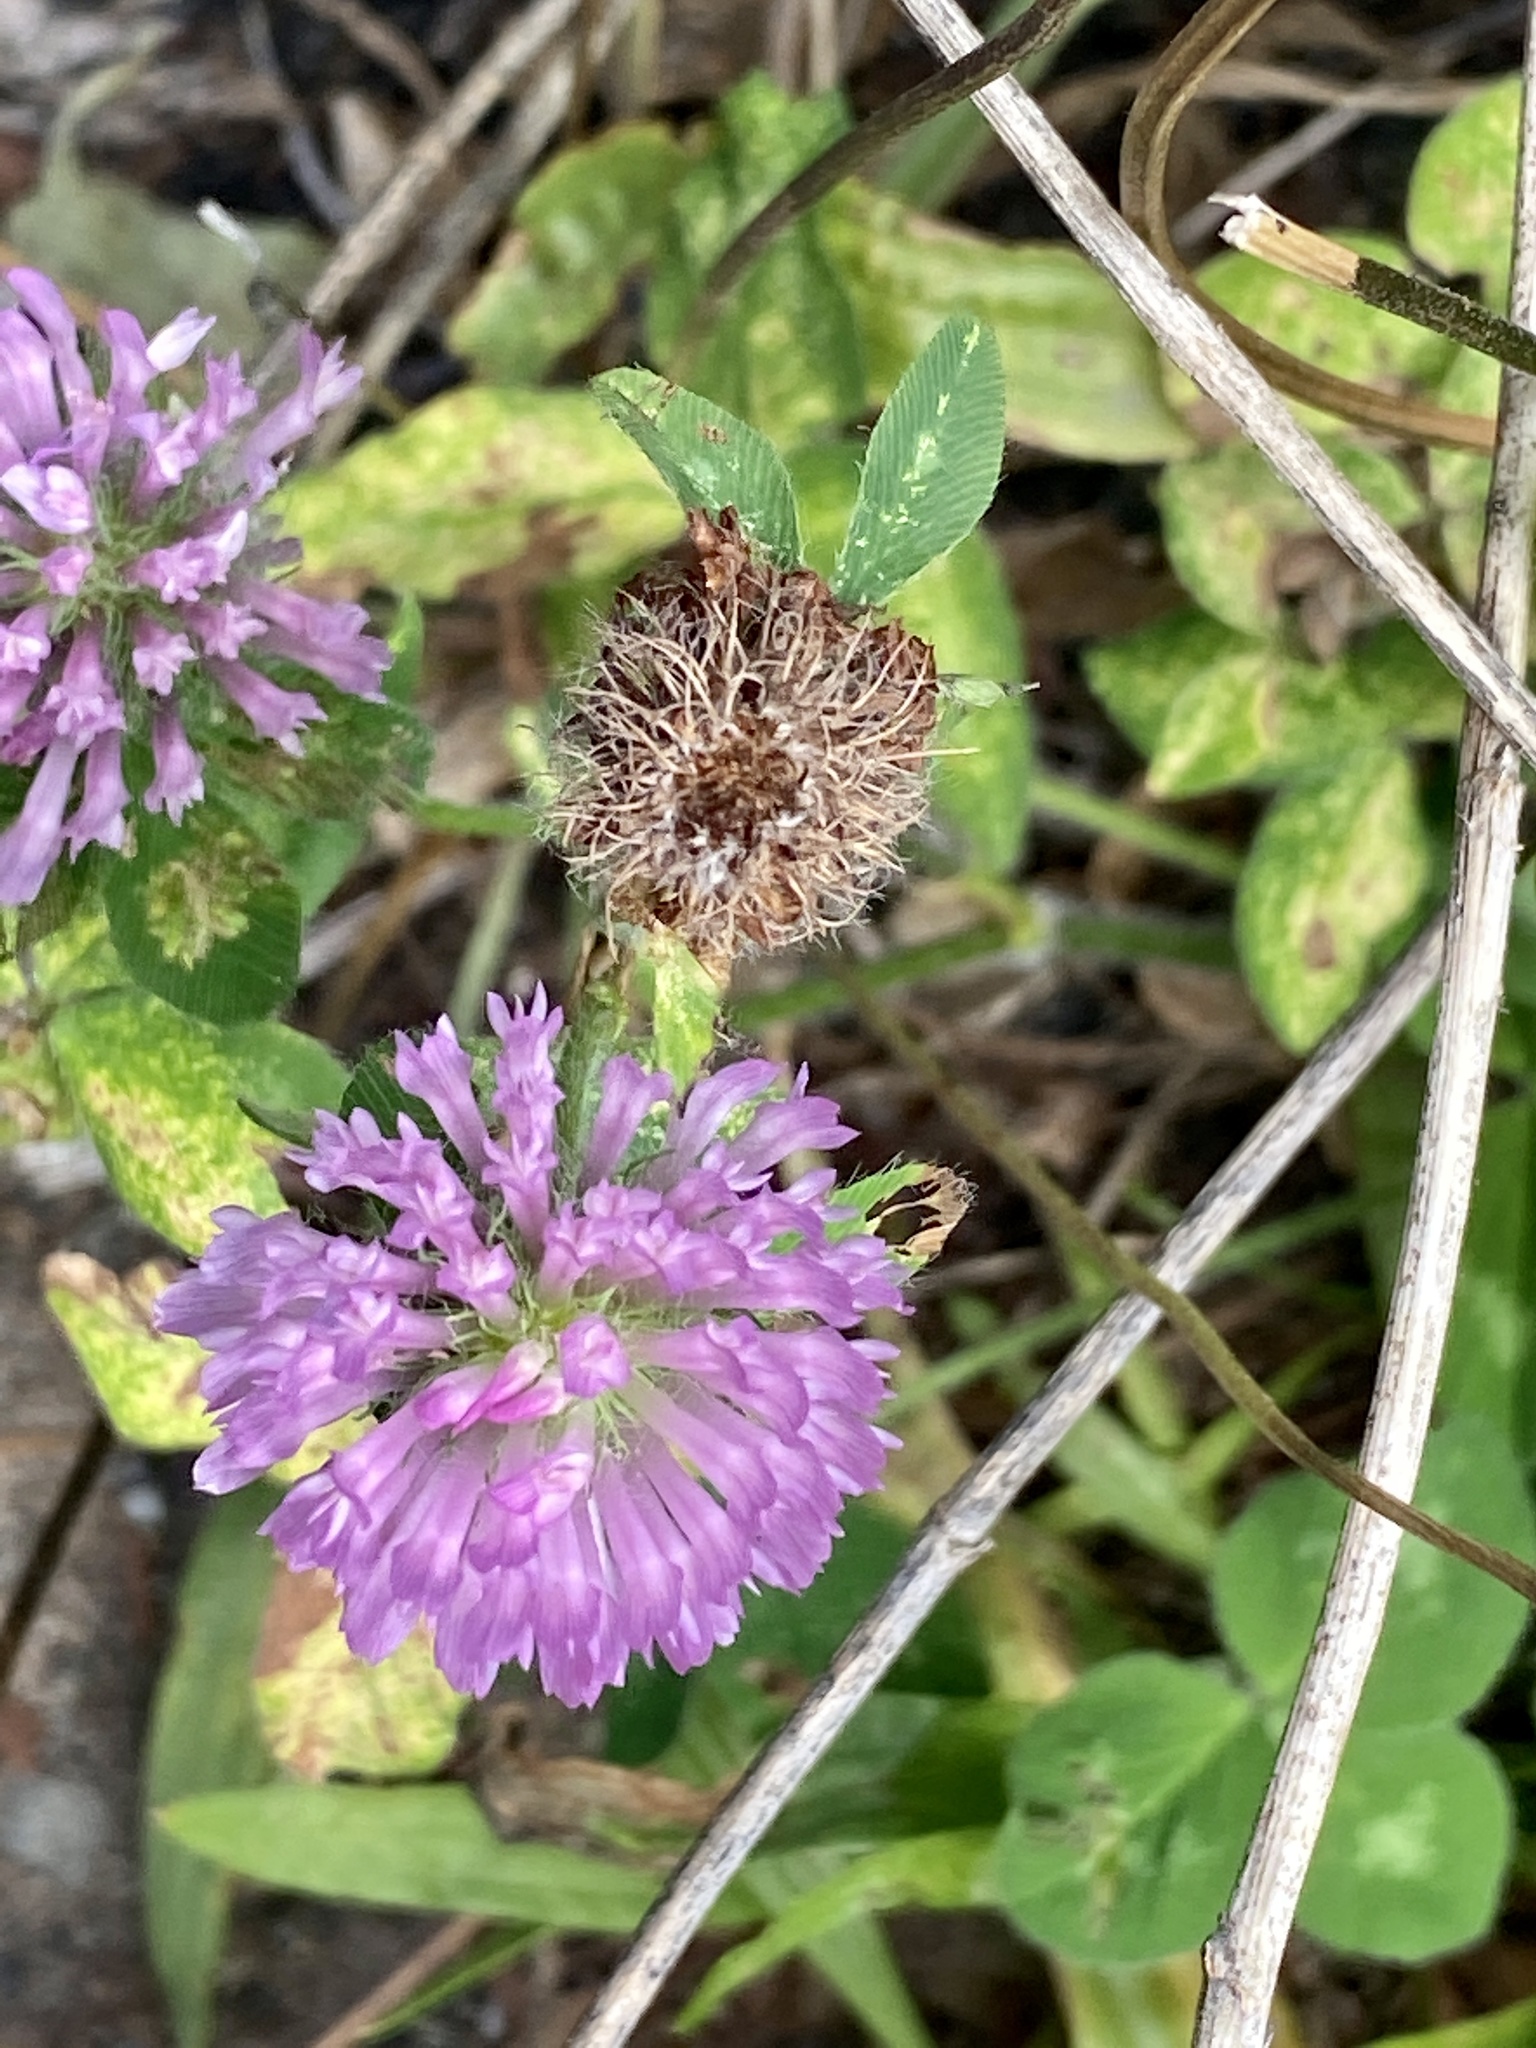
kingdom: Plantae
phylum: Tracheophyta
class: Magnoliopsida
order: Fabales
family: Fabaceae
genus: Trifolium
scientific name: Trifolium pratense
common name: Red clover
